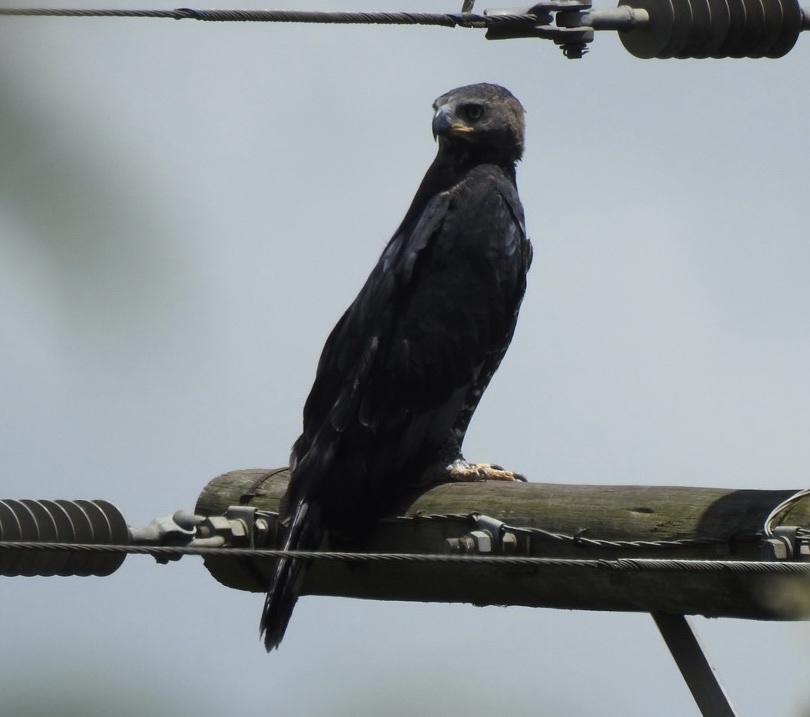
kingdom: Animalia
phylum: Chordata
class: Aves
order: Accipitriformes
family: Accipitridae
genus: Stephanoaetus
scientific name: Stephanoaetus coronatus
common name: Crowned eagle
